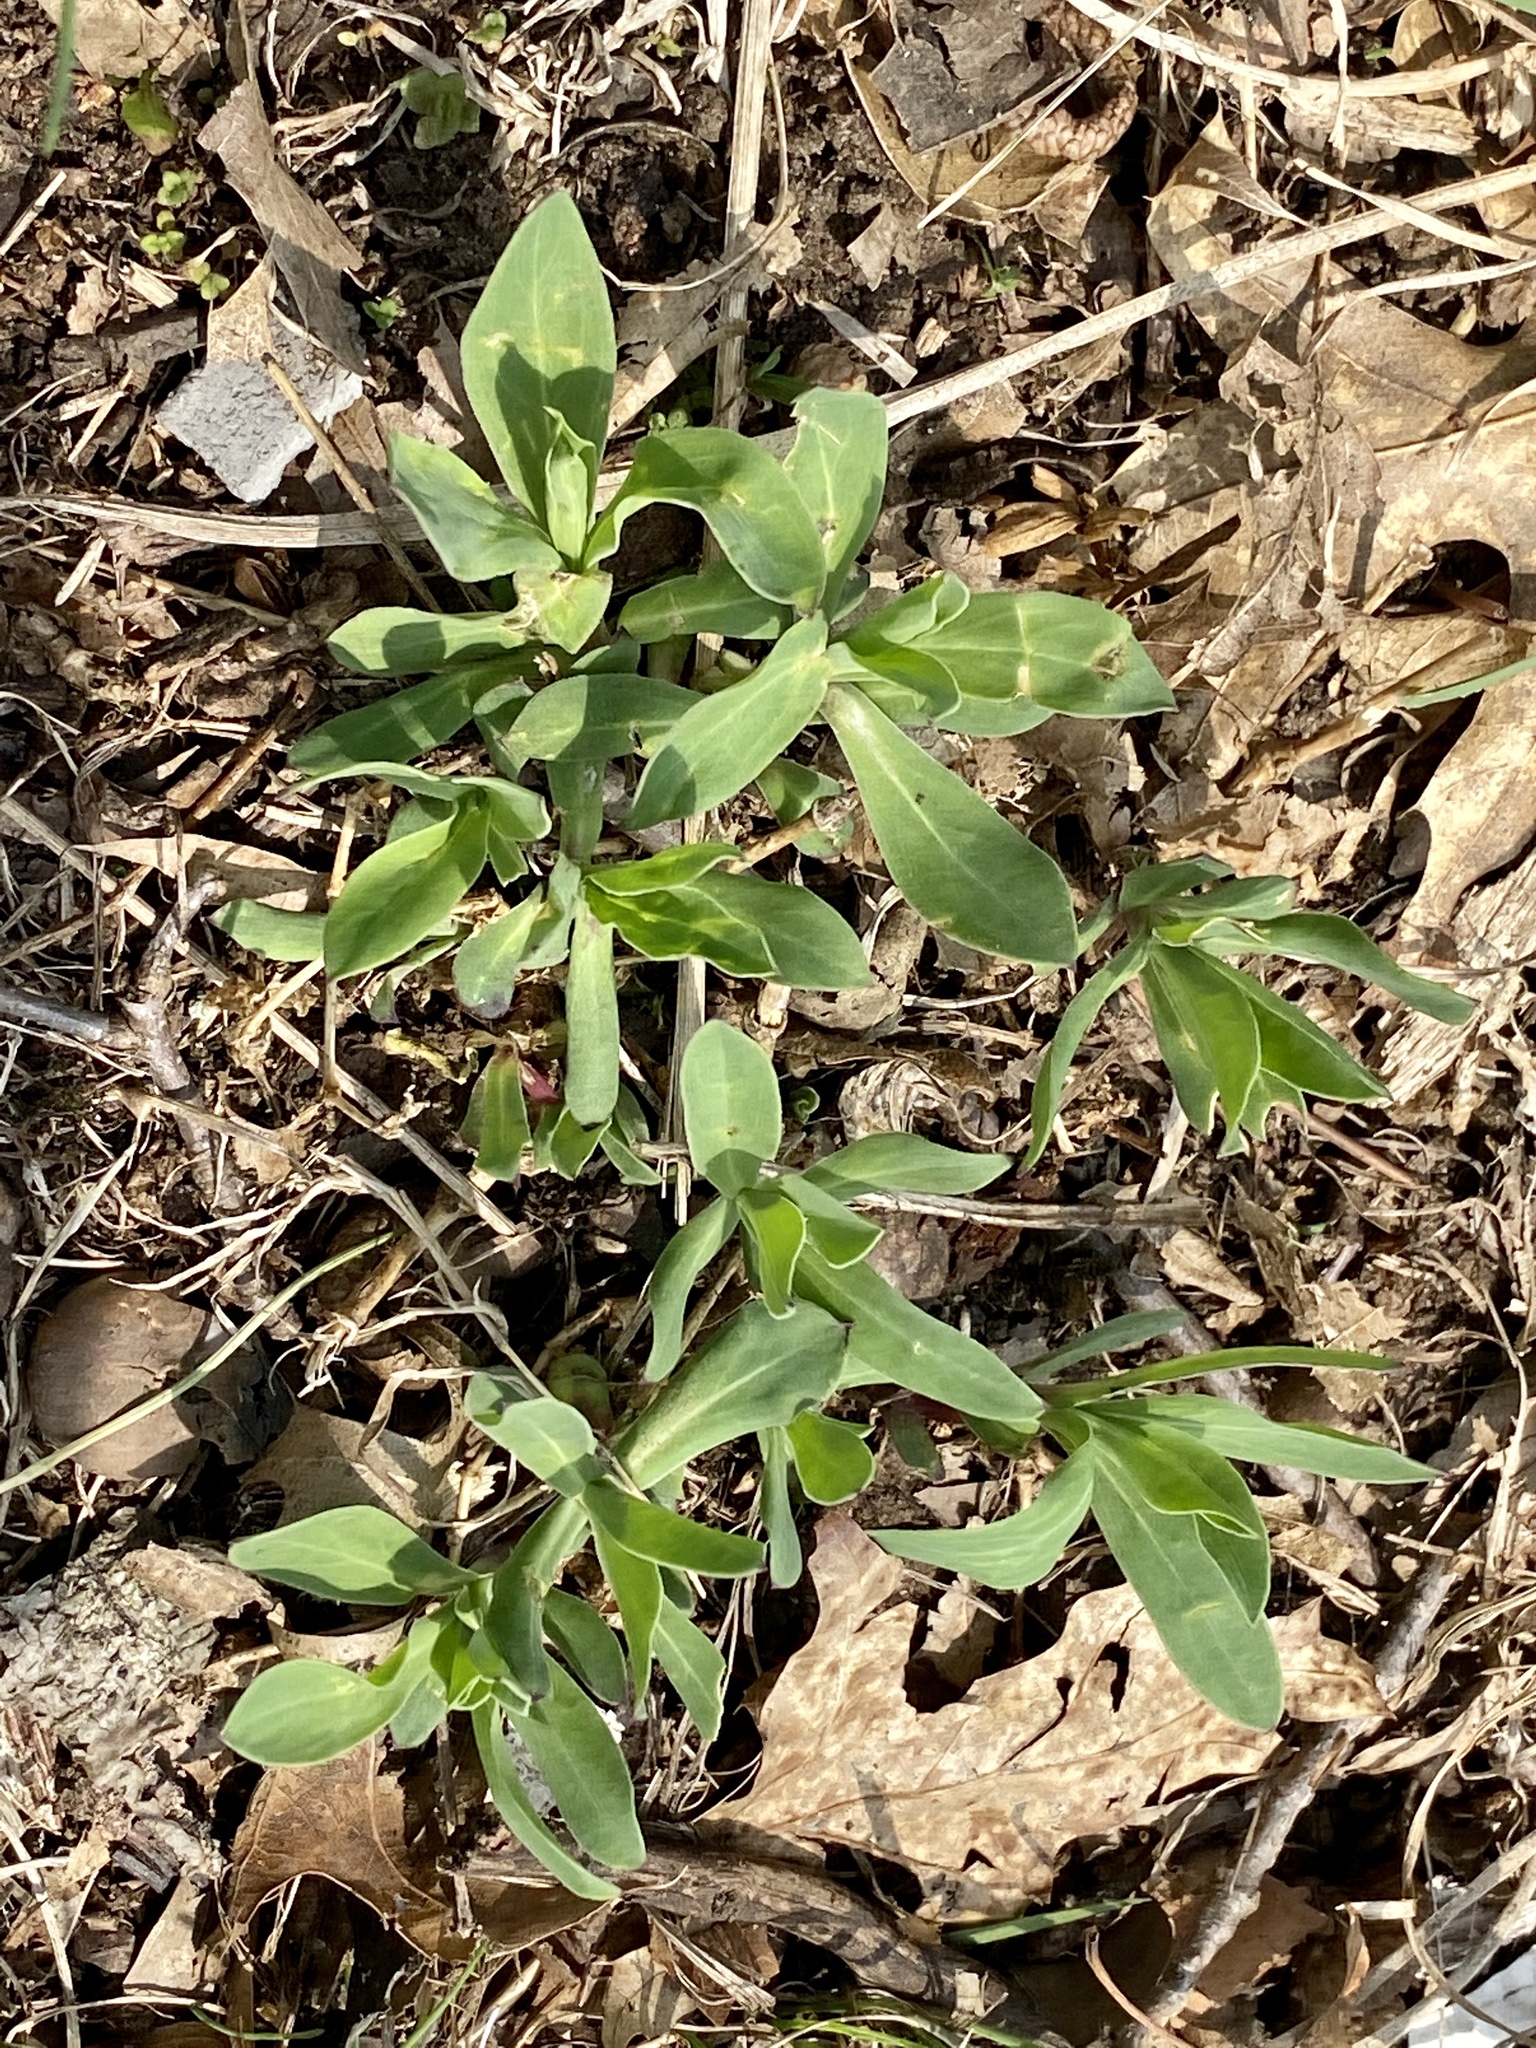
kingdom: Plantae
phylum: Tracheophyta
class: Magnoliopsida
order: Caryophyllales
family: Caryophyllaceae
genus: Silene
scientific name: Silene vulgaris
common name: Bladder campion
